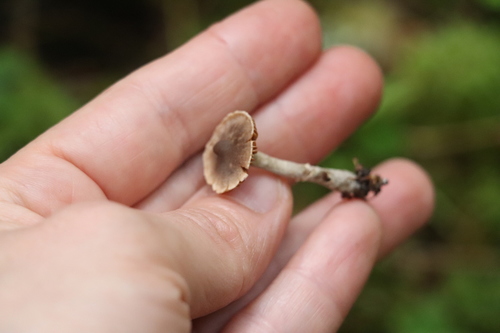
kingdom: Fungi
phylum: Basidiomycota
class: Agaricomycetes
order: Agaricales
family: Cortinariaceae
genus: Cortinarius
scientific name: Cortinarius
